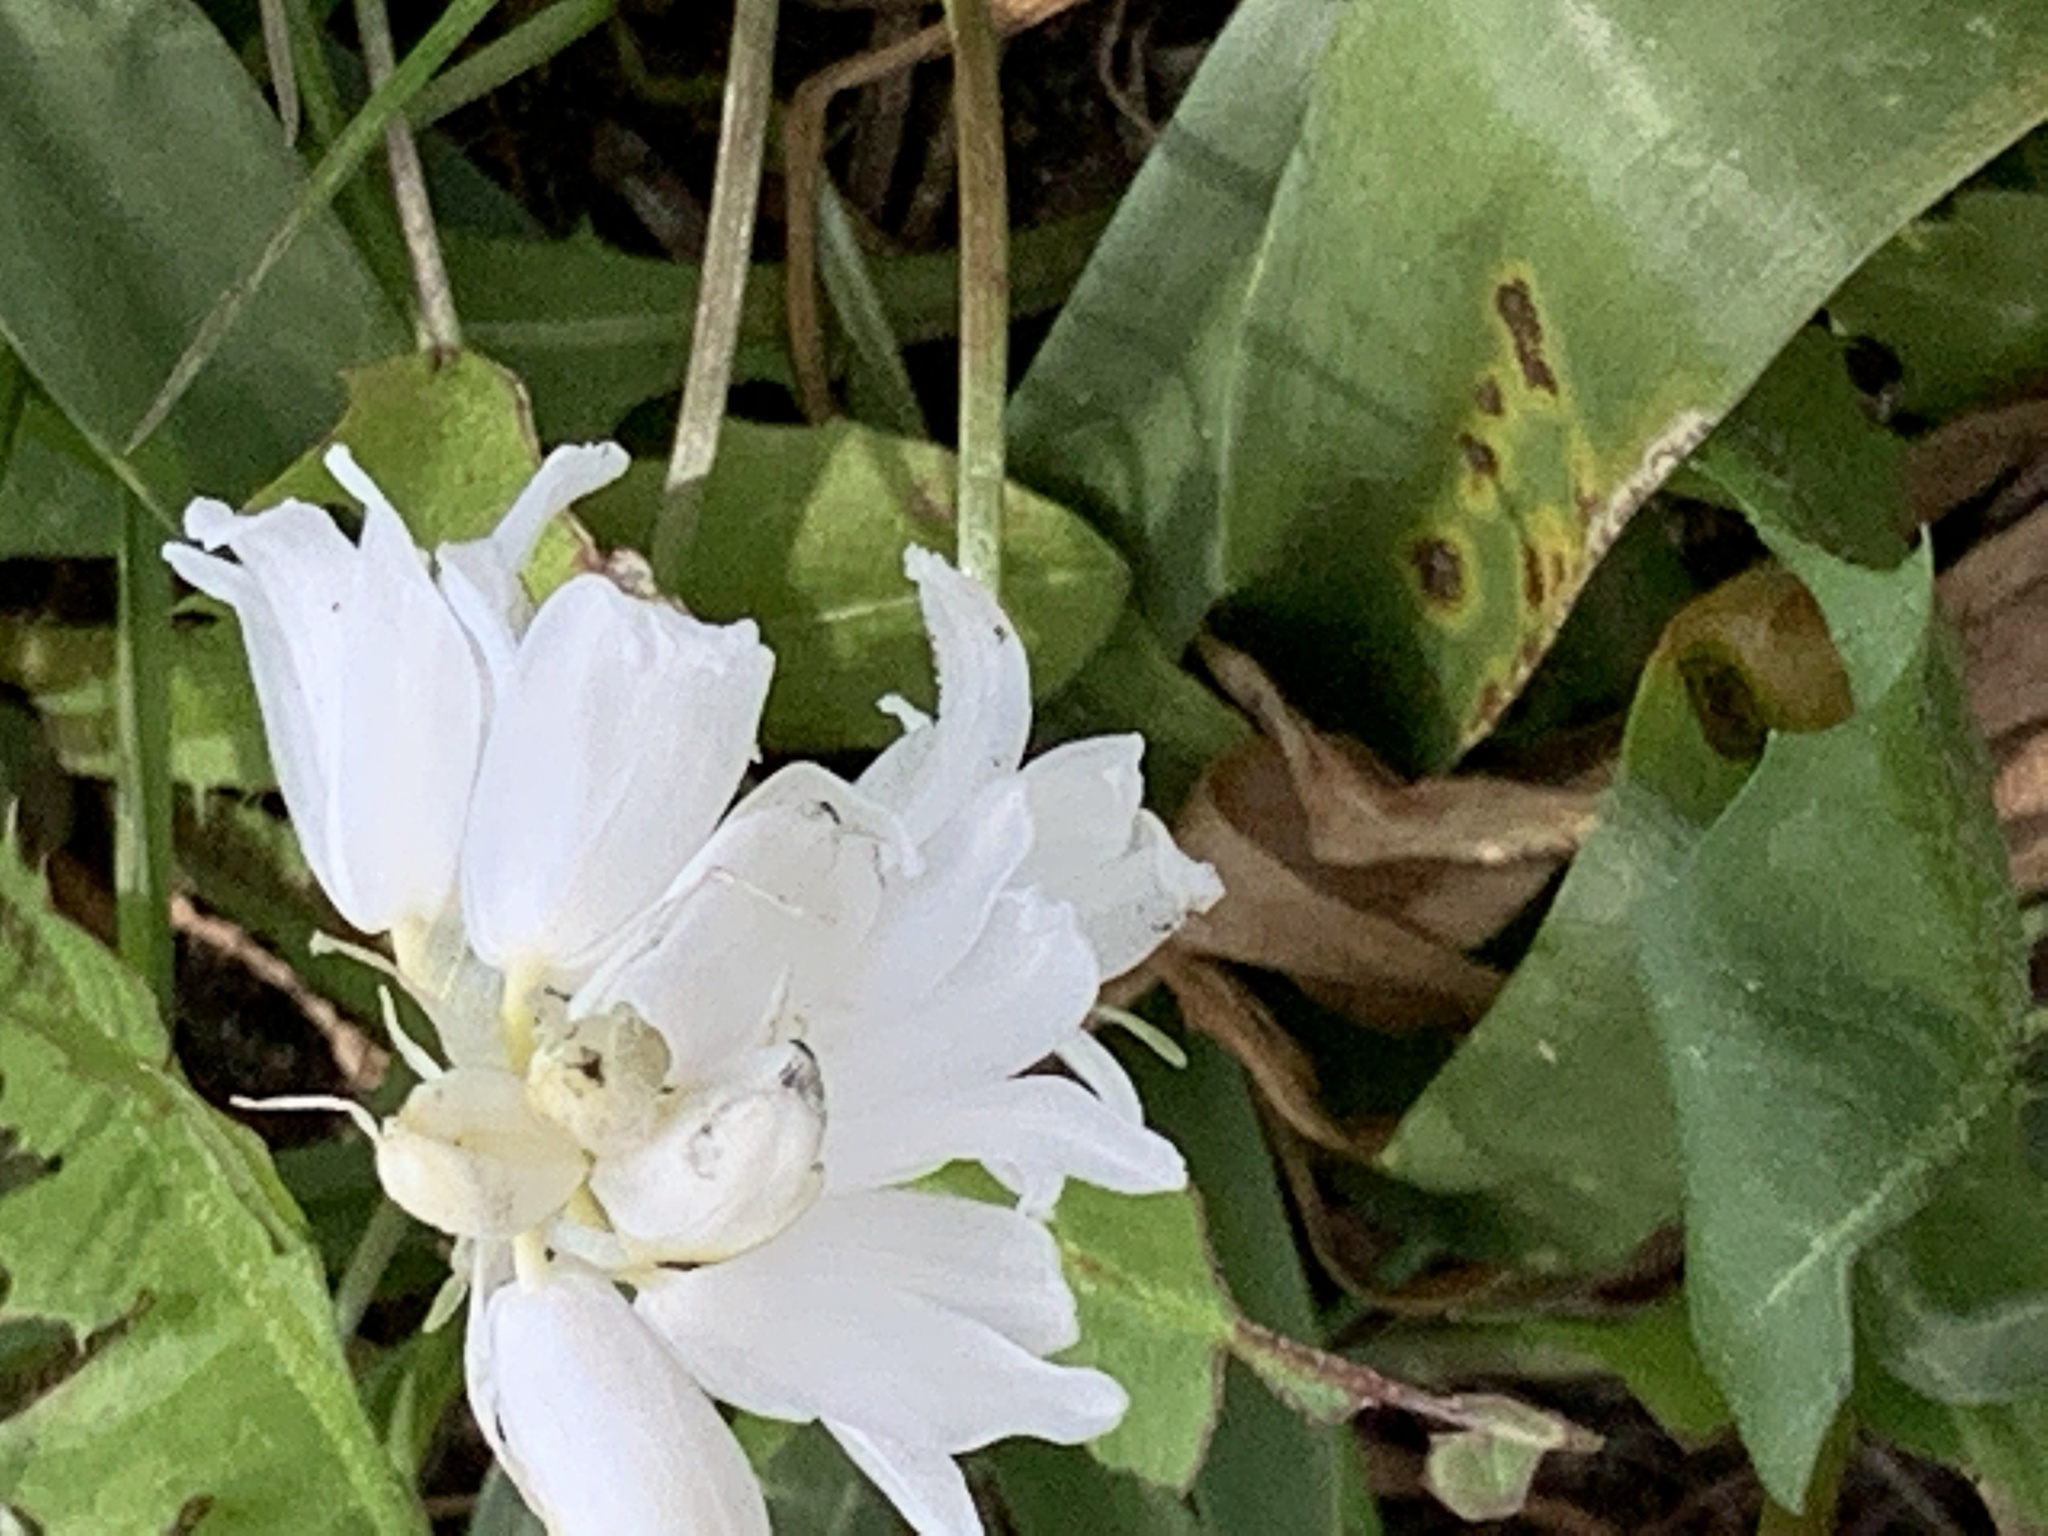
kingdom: Plantae
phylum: Tracheophyta
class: Liliopsida
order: Asparagales
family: Asparagaceae
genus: Hyacinthoides
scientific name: Hyacinthoides massartiana
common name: Hyacinthoides
